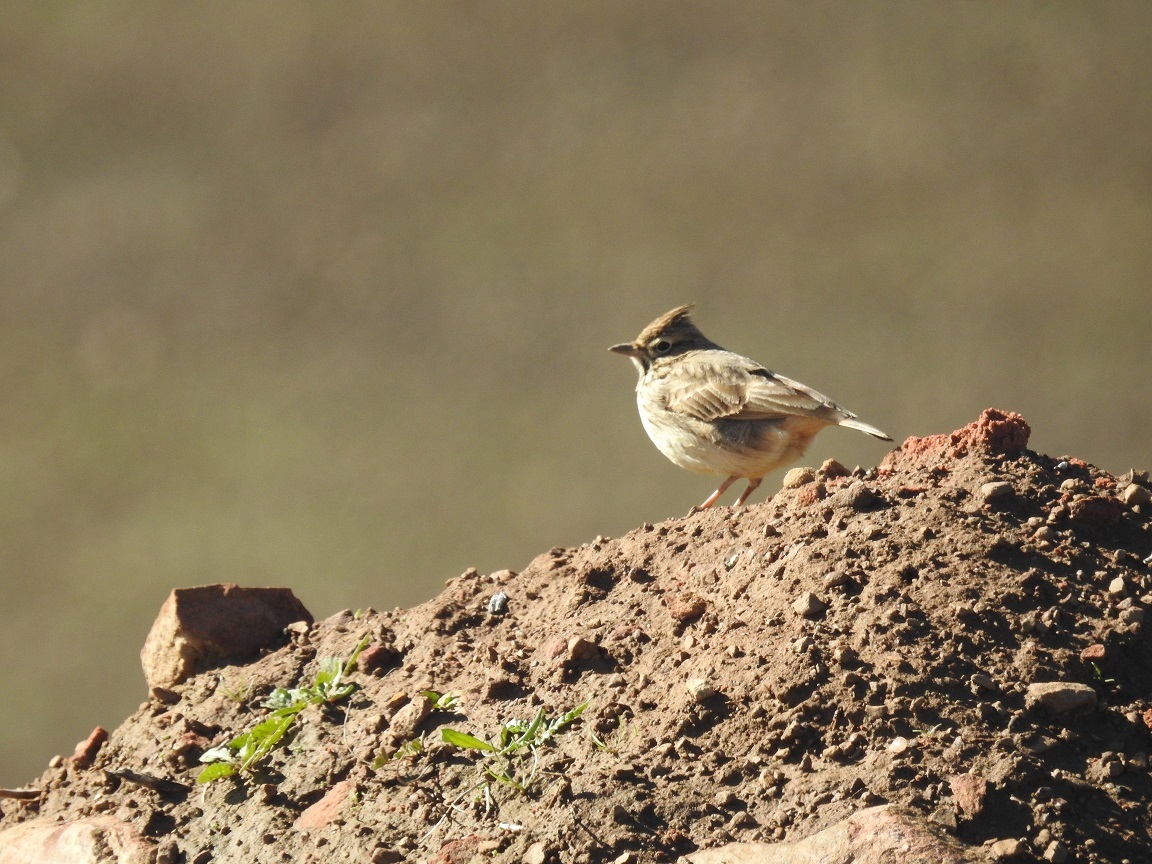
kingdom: Animalia
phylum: Chordata
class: Aves
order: Passeriformes
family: Alaudidae
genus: Galerida
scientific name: Galerida theklae
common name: Thekla lark
